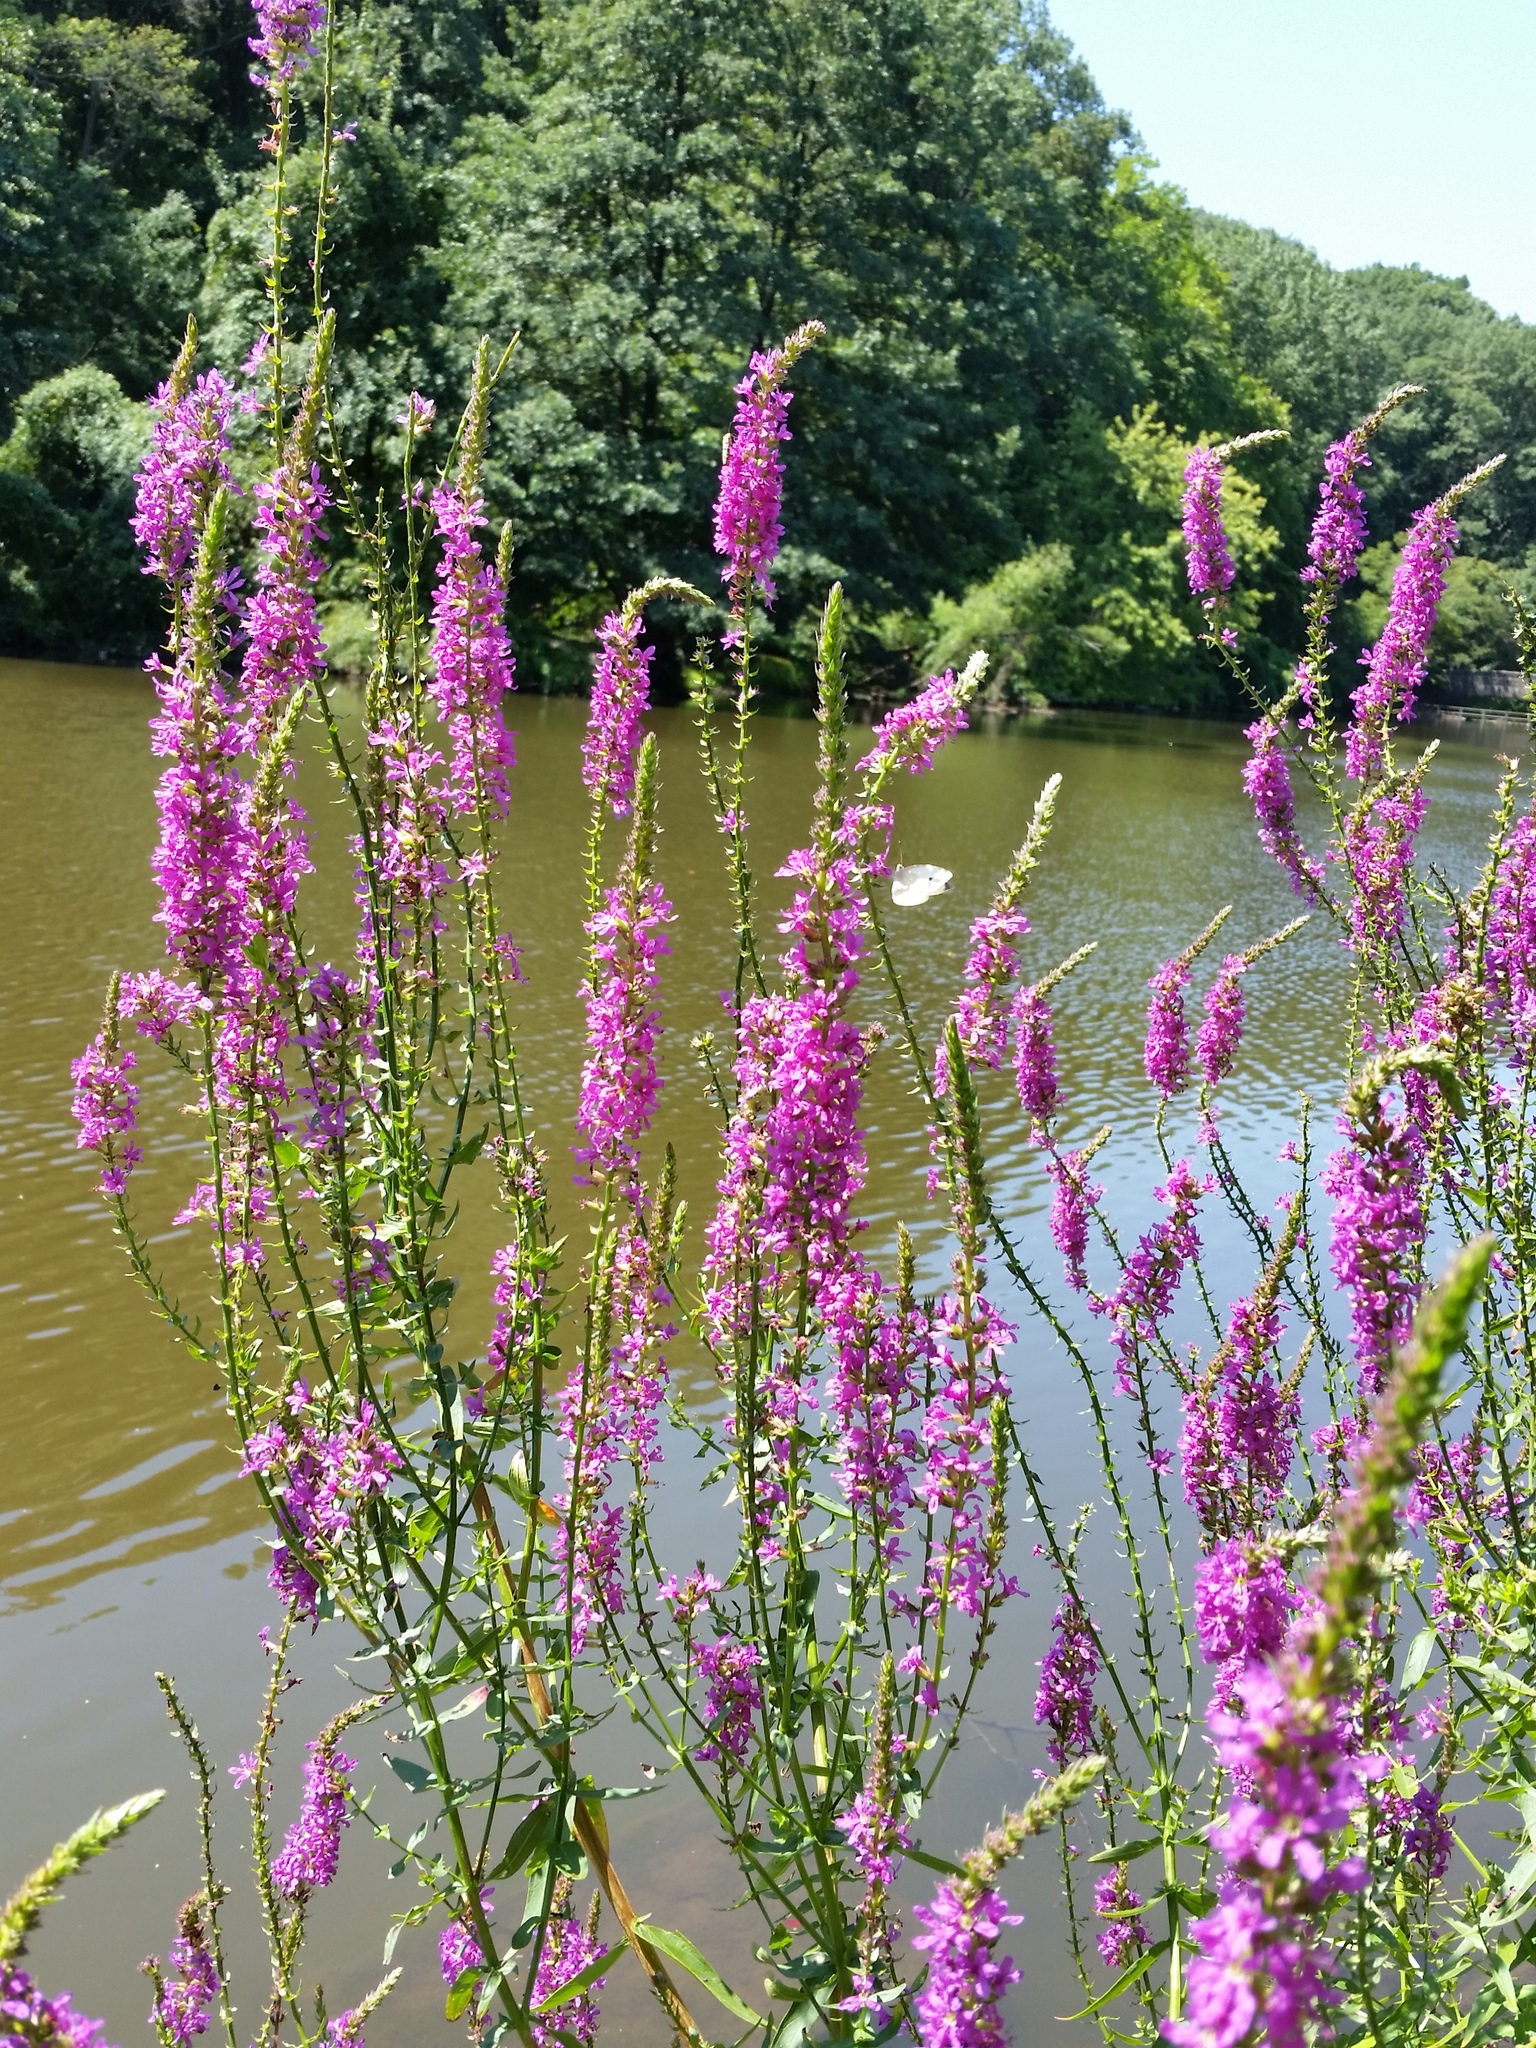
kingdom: Plantae
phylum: Tracheophyta
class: Magnoliopsida
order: Myrtales
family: Lythraceae
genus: Lythrum
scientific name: Lythrum salicaria
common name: Purple loosestrife
